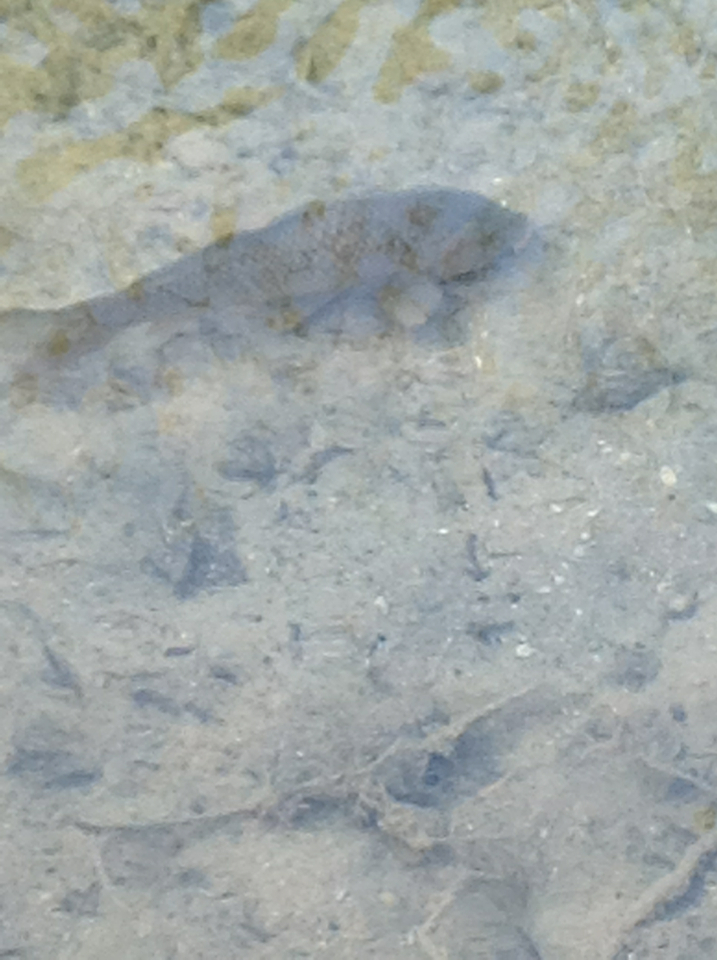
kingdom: Animalia
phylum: Chordata
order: Cypriniformes
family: Cyprinidae
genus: Cyprinus
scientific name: Cyprinus carpio
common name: Common carp
